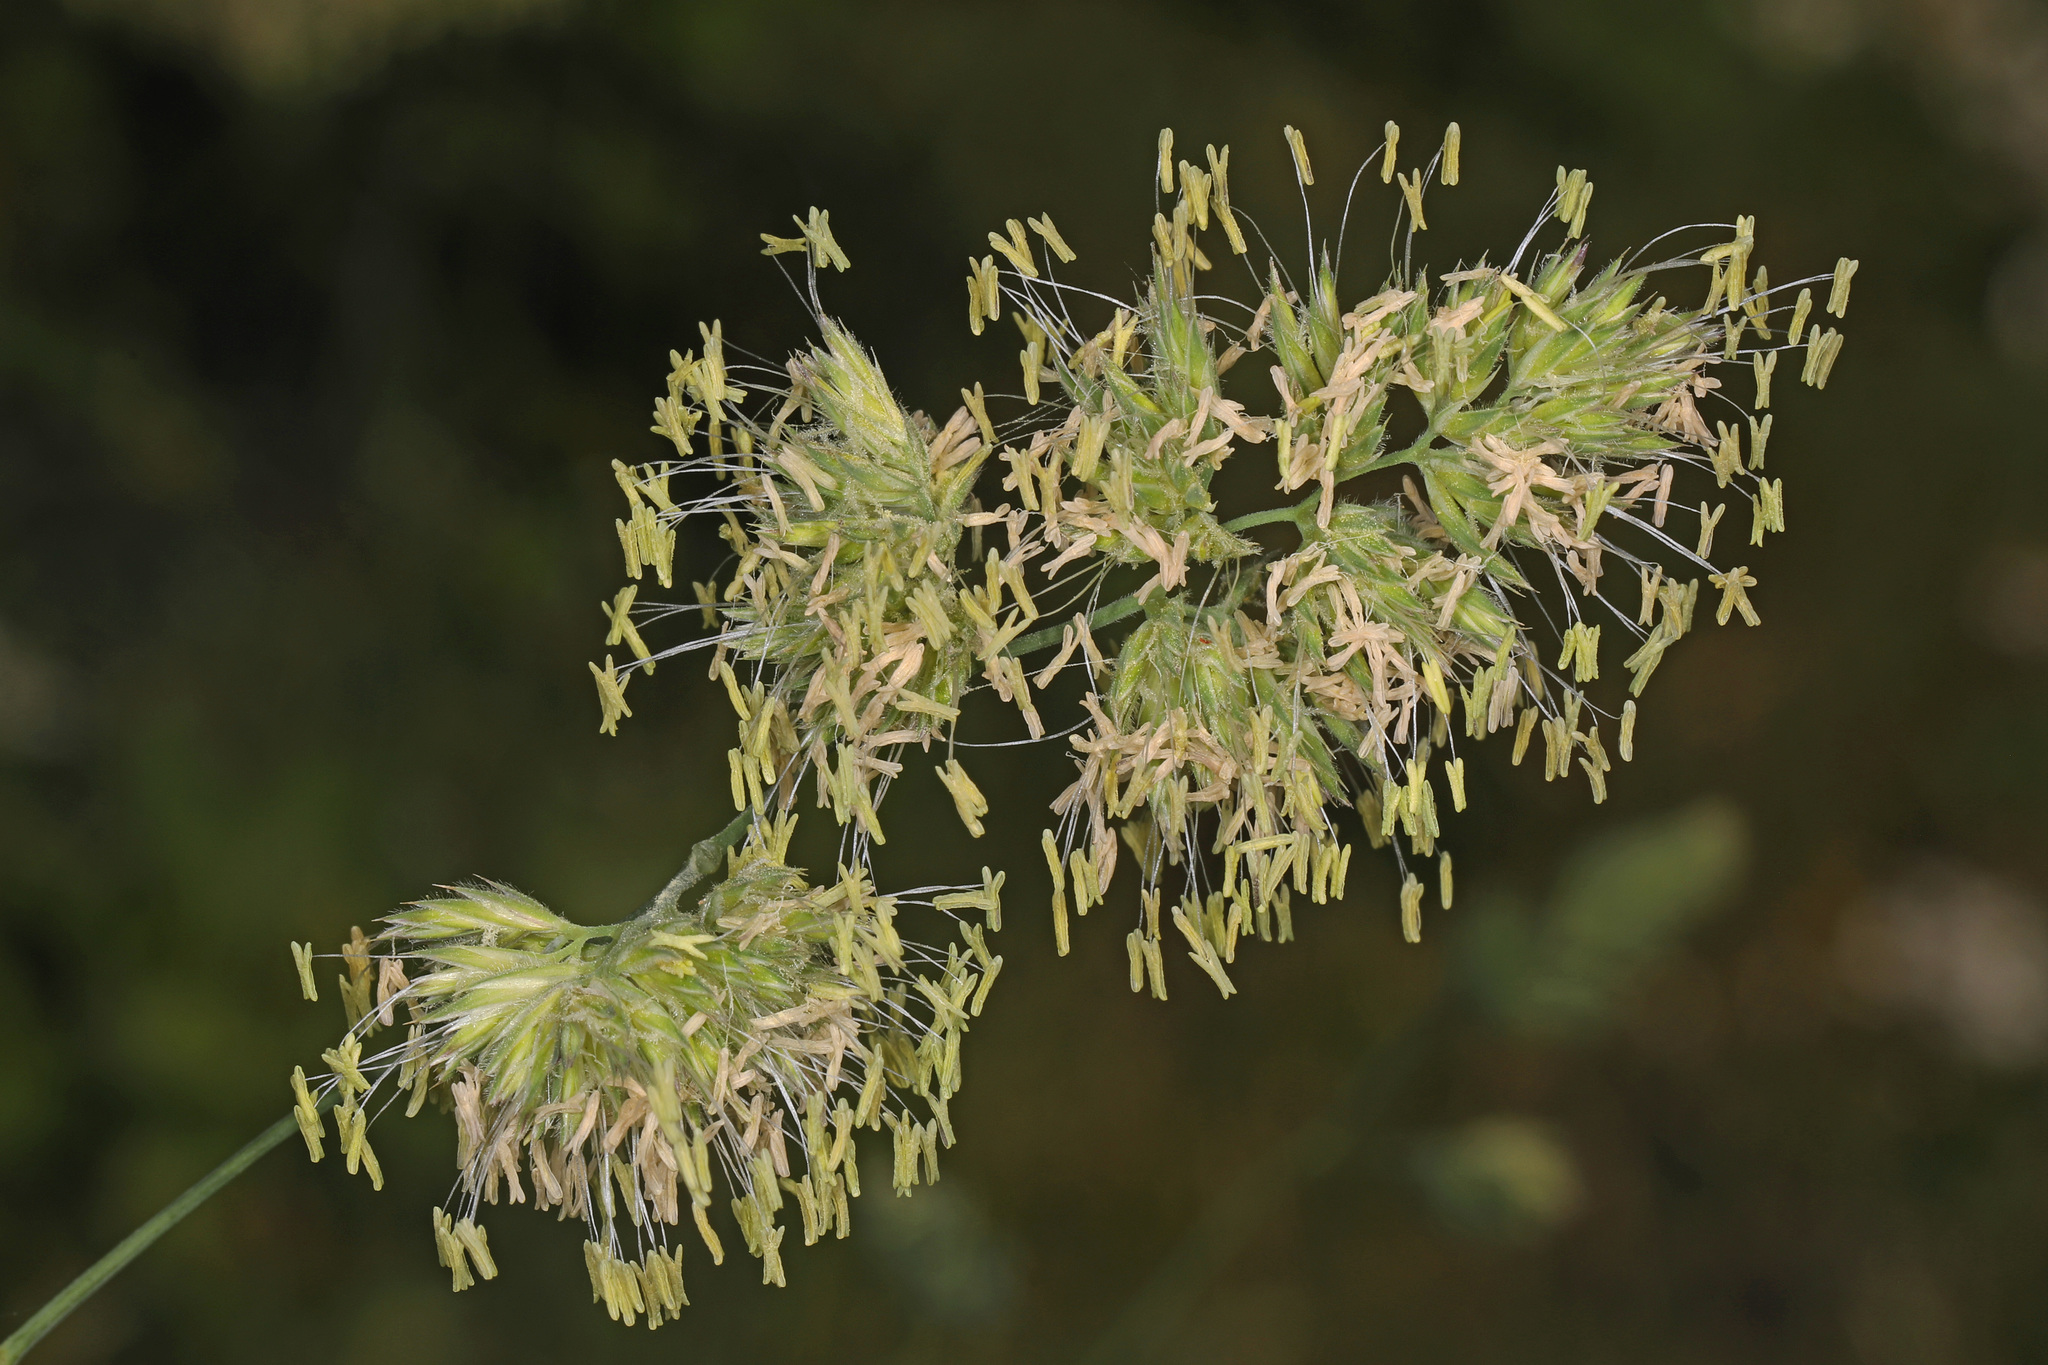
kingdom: Plantae
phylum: Tracheophyta
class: Liliopsida
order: Poales
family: Poaceae
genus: Dactylis
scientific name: Dactylis glomerata
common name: Orchardgrass
